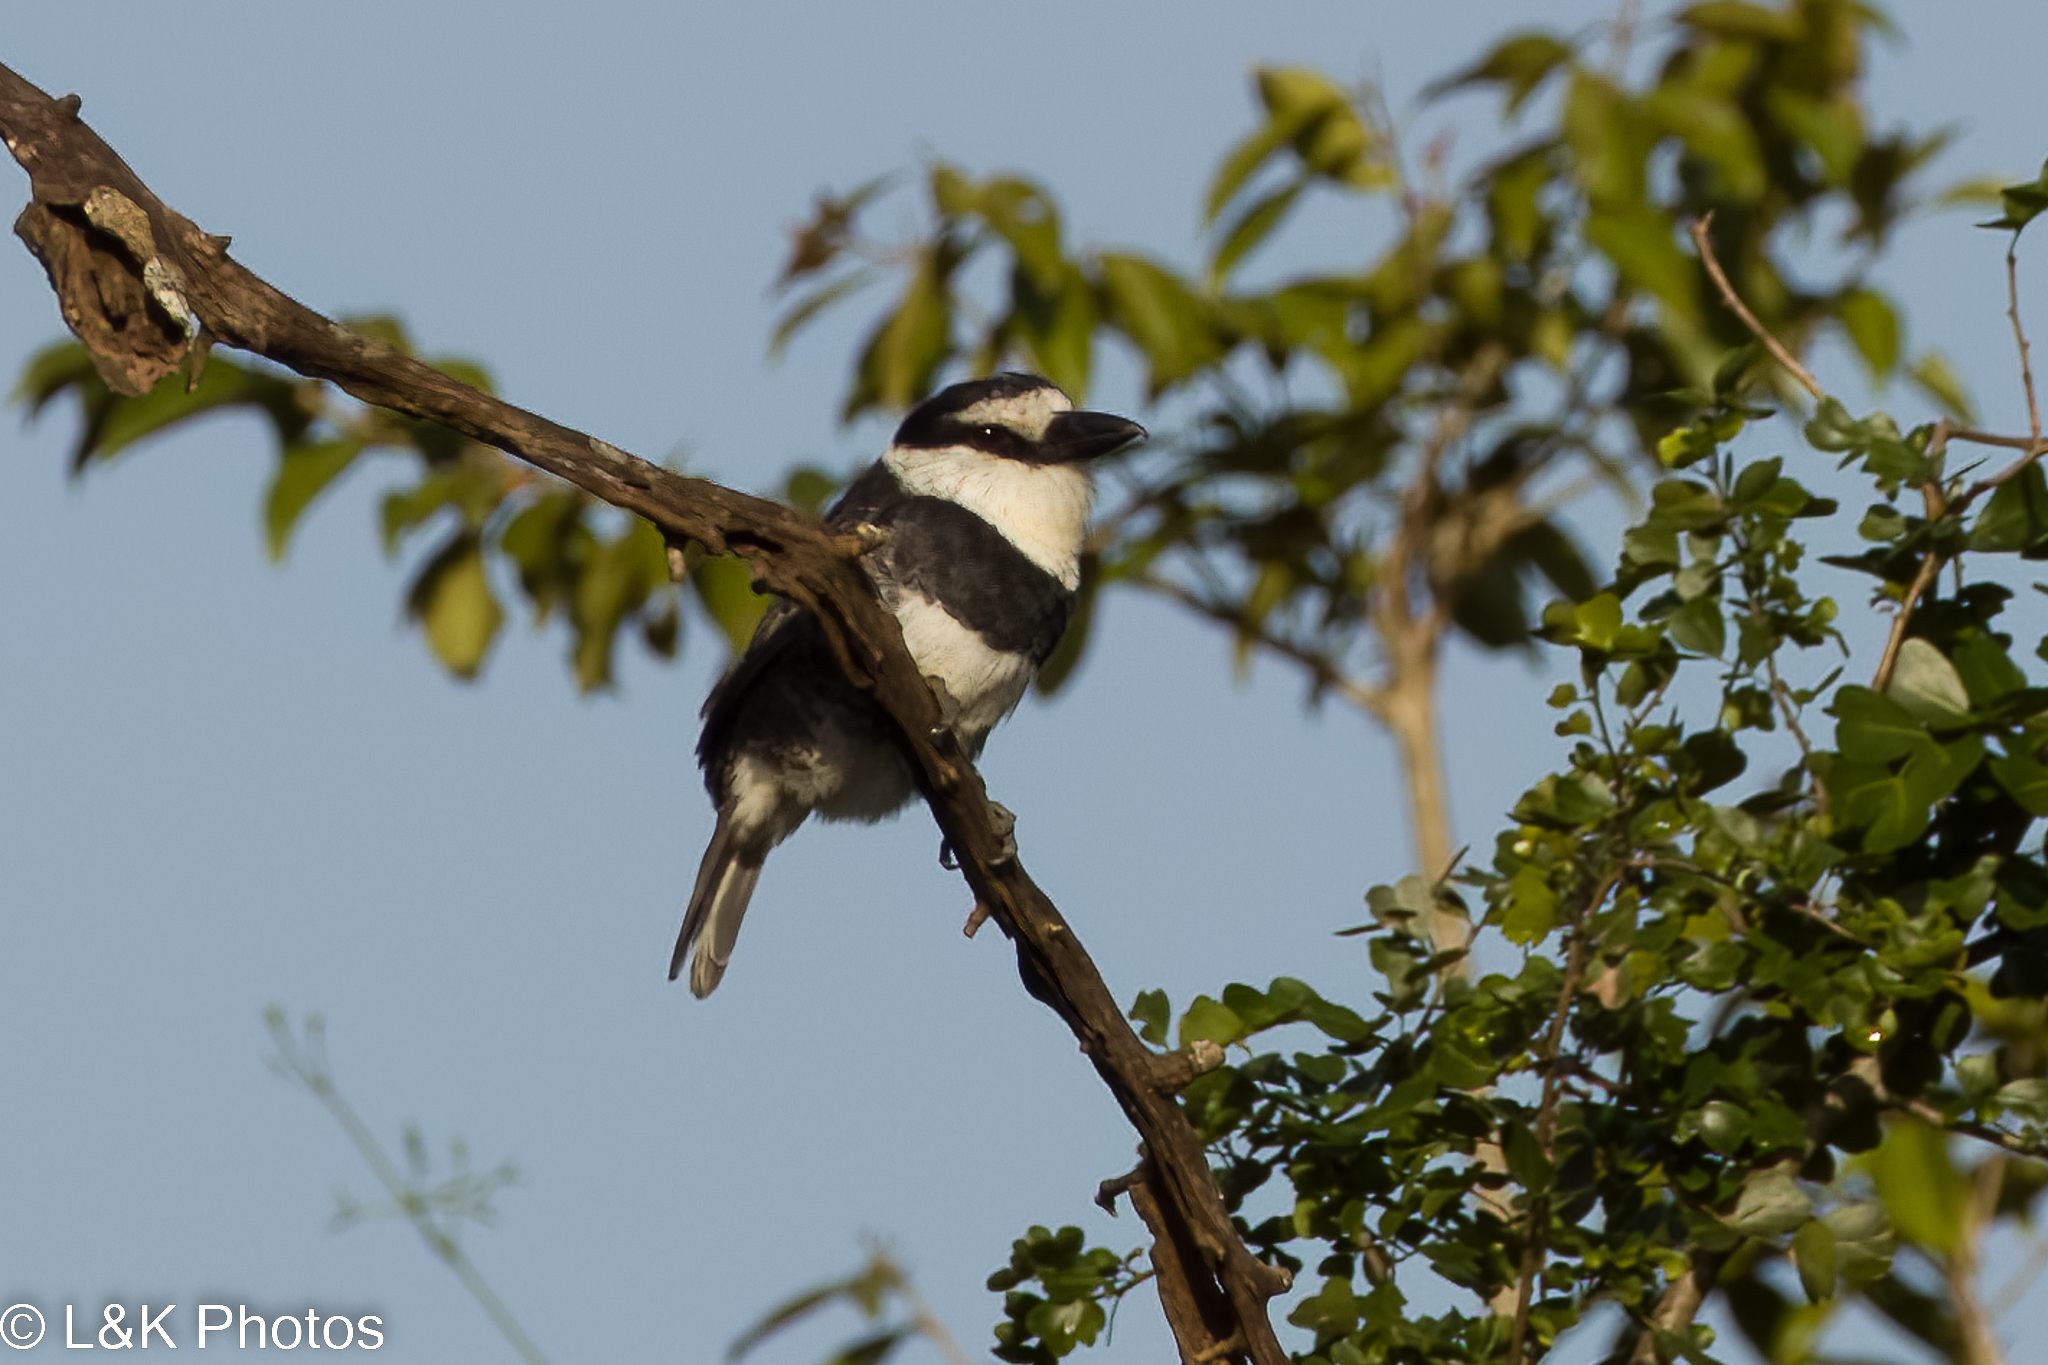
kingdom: Animalia
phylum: Chordata
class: Aves
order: Piciformes
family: Bucconidae
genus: Notharchus
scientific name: Notharchus hyperrhynchus
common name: White-necked puffbird
